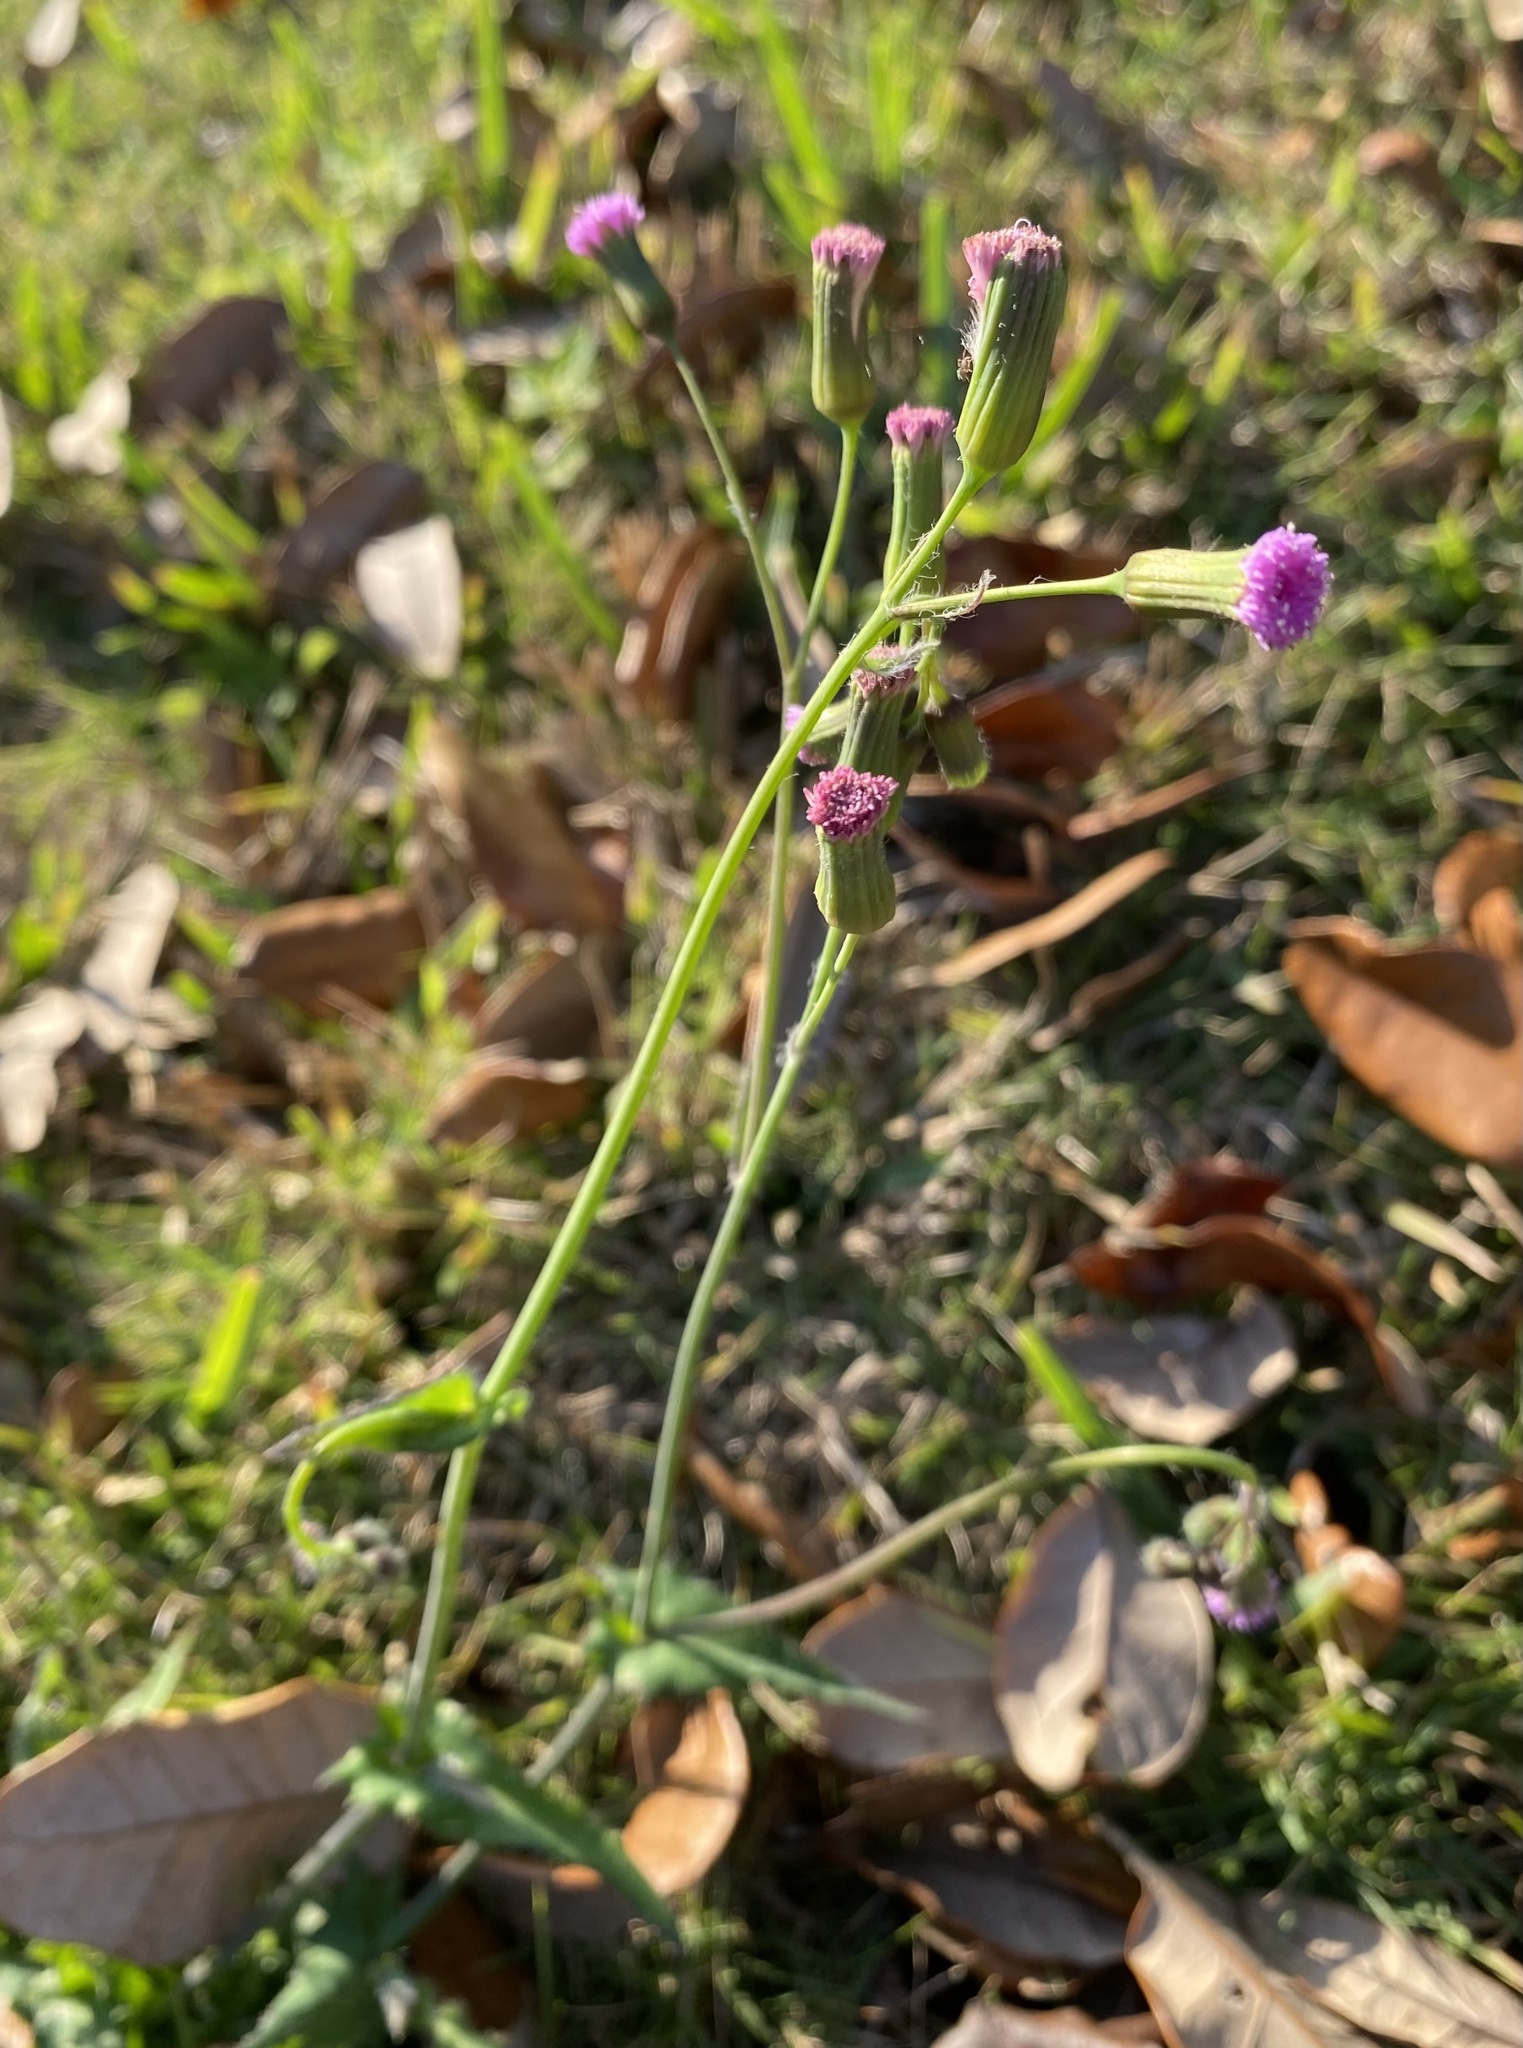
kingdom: Plantae
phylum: Tracheophyta
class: Magnoliopsida
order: Asterales
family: Asteraceae
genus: Emilia
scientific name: Emilia sonchifolia
